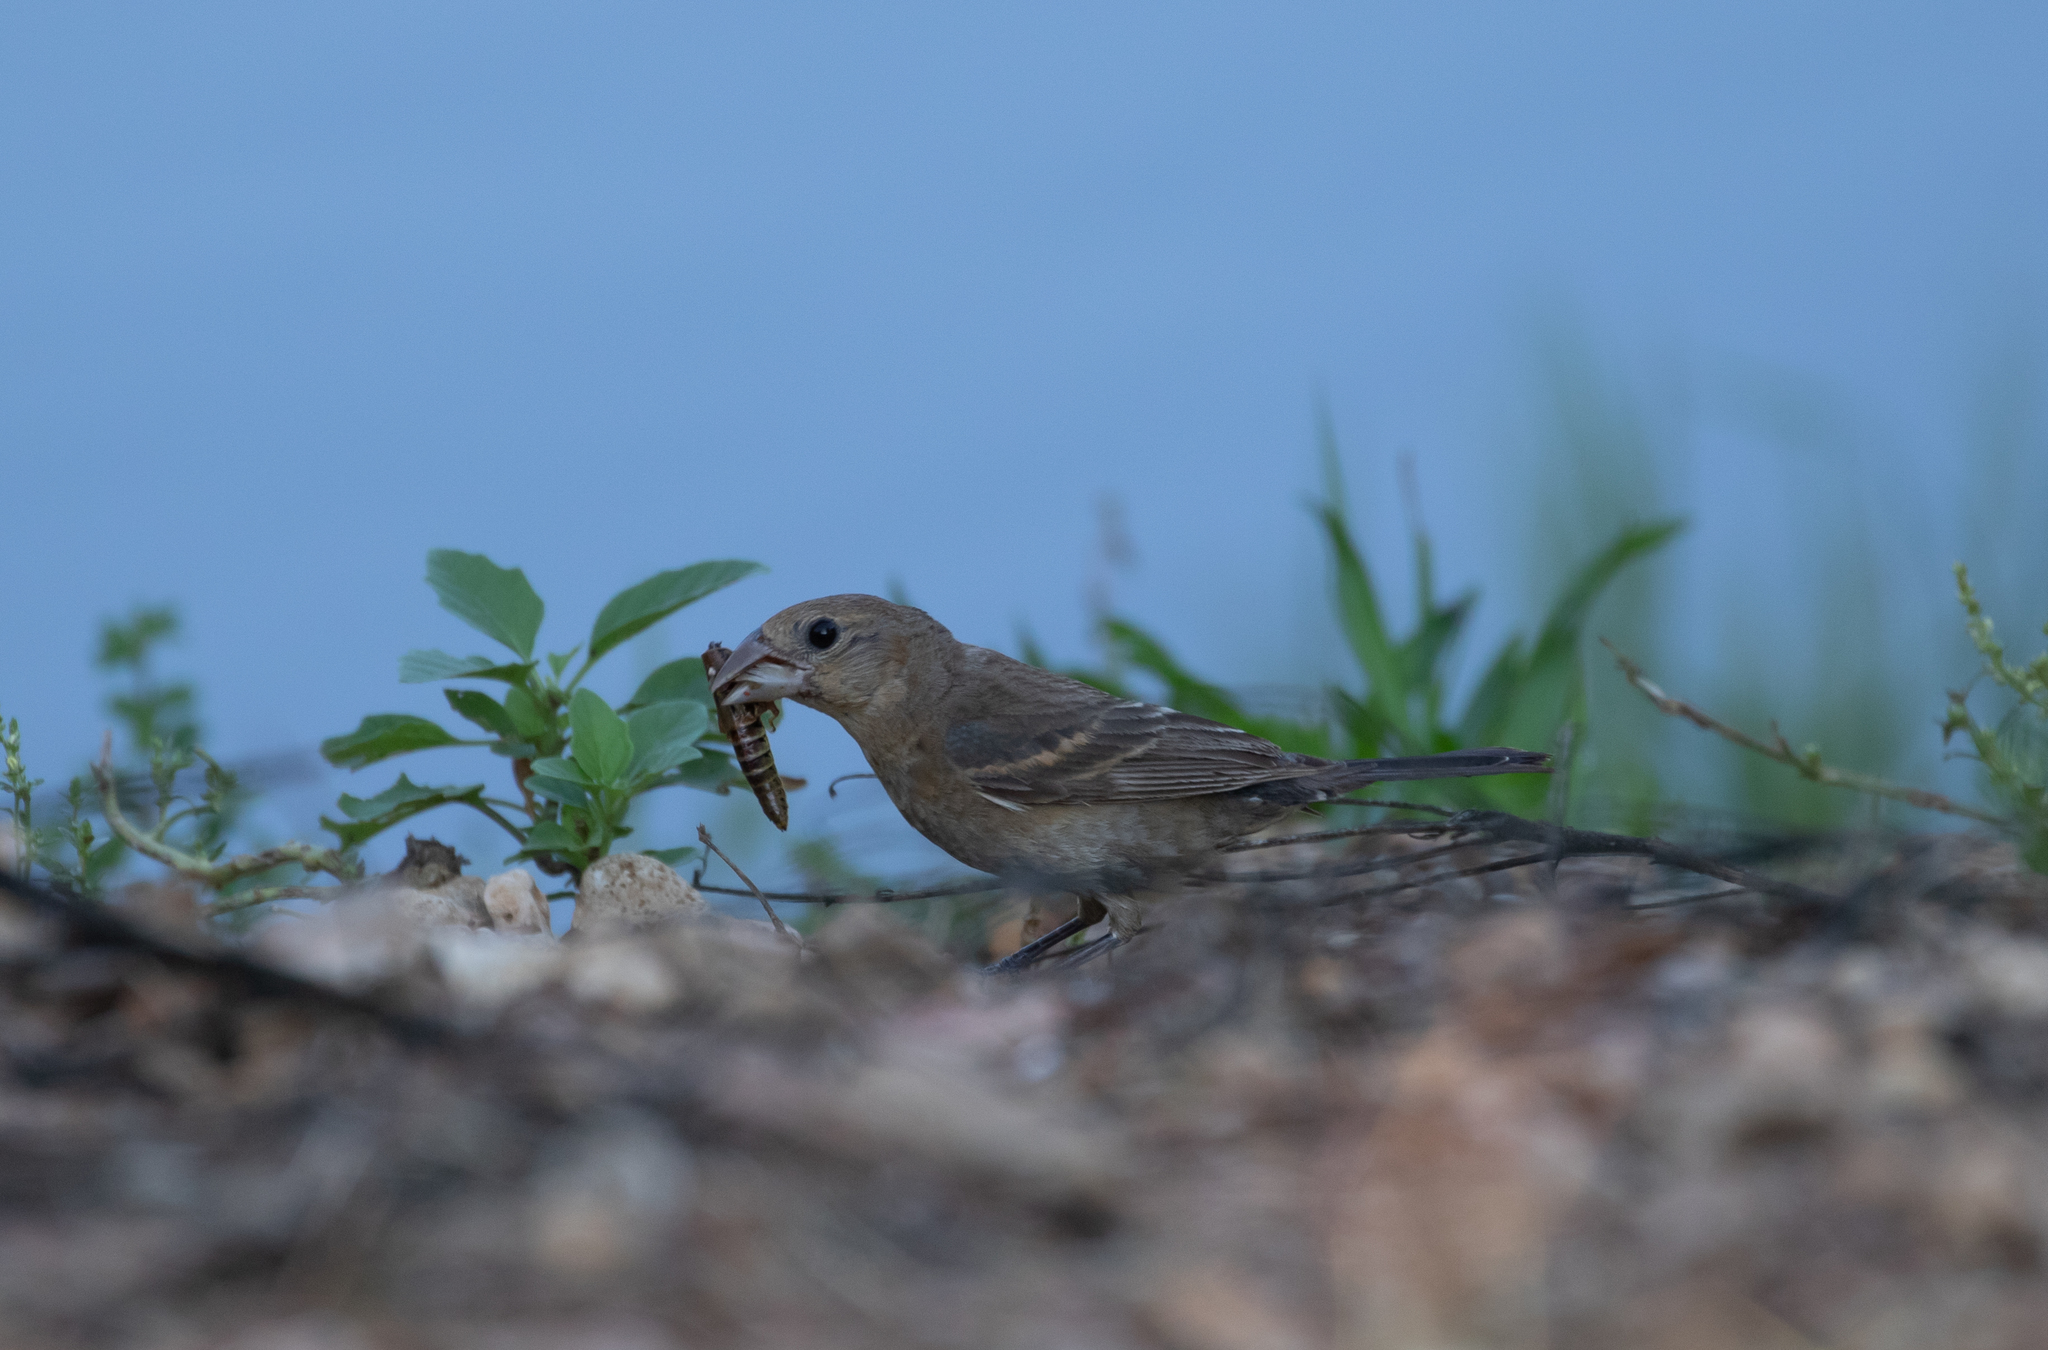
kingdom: Animalia
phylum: Chordata
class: Aves
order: Passeriformes
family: Cardinalidae
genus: Passerina
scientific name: Passerina cyanea
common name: Indigo bunting
